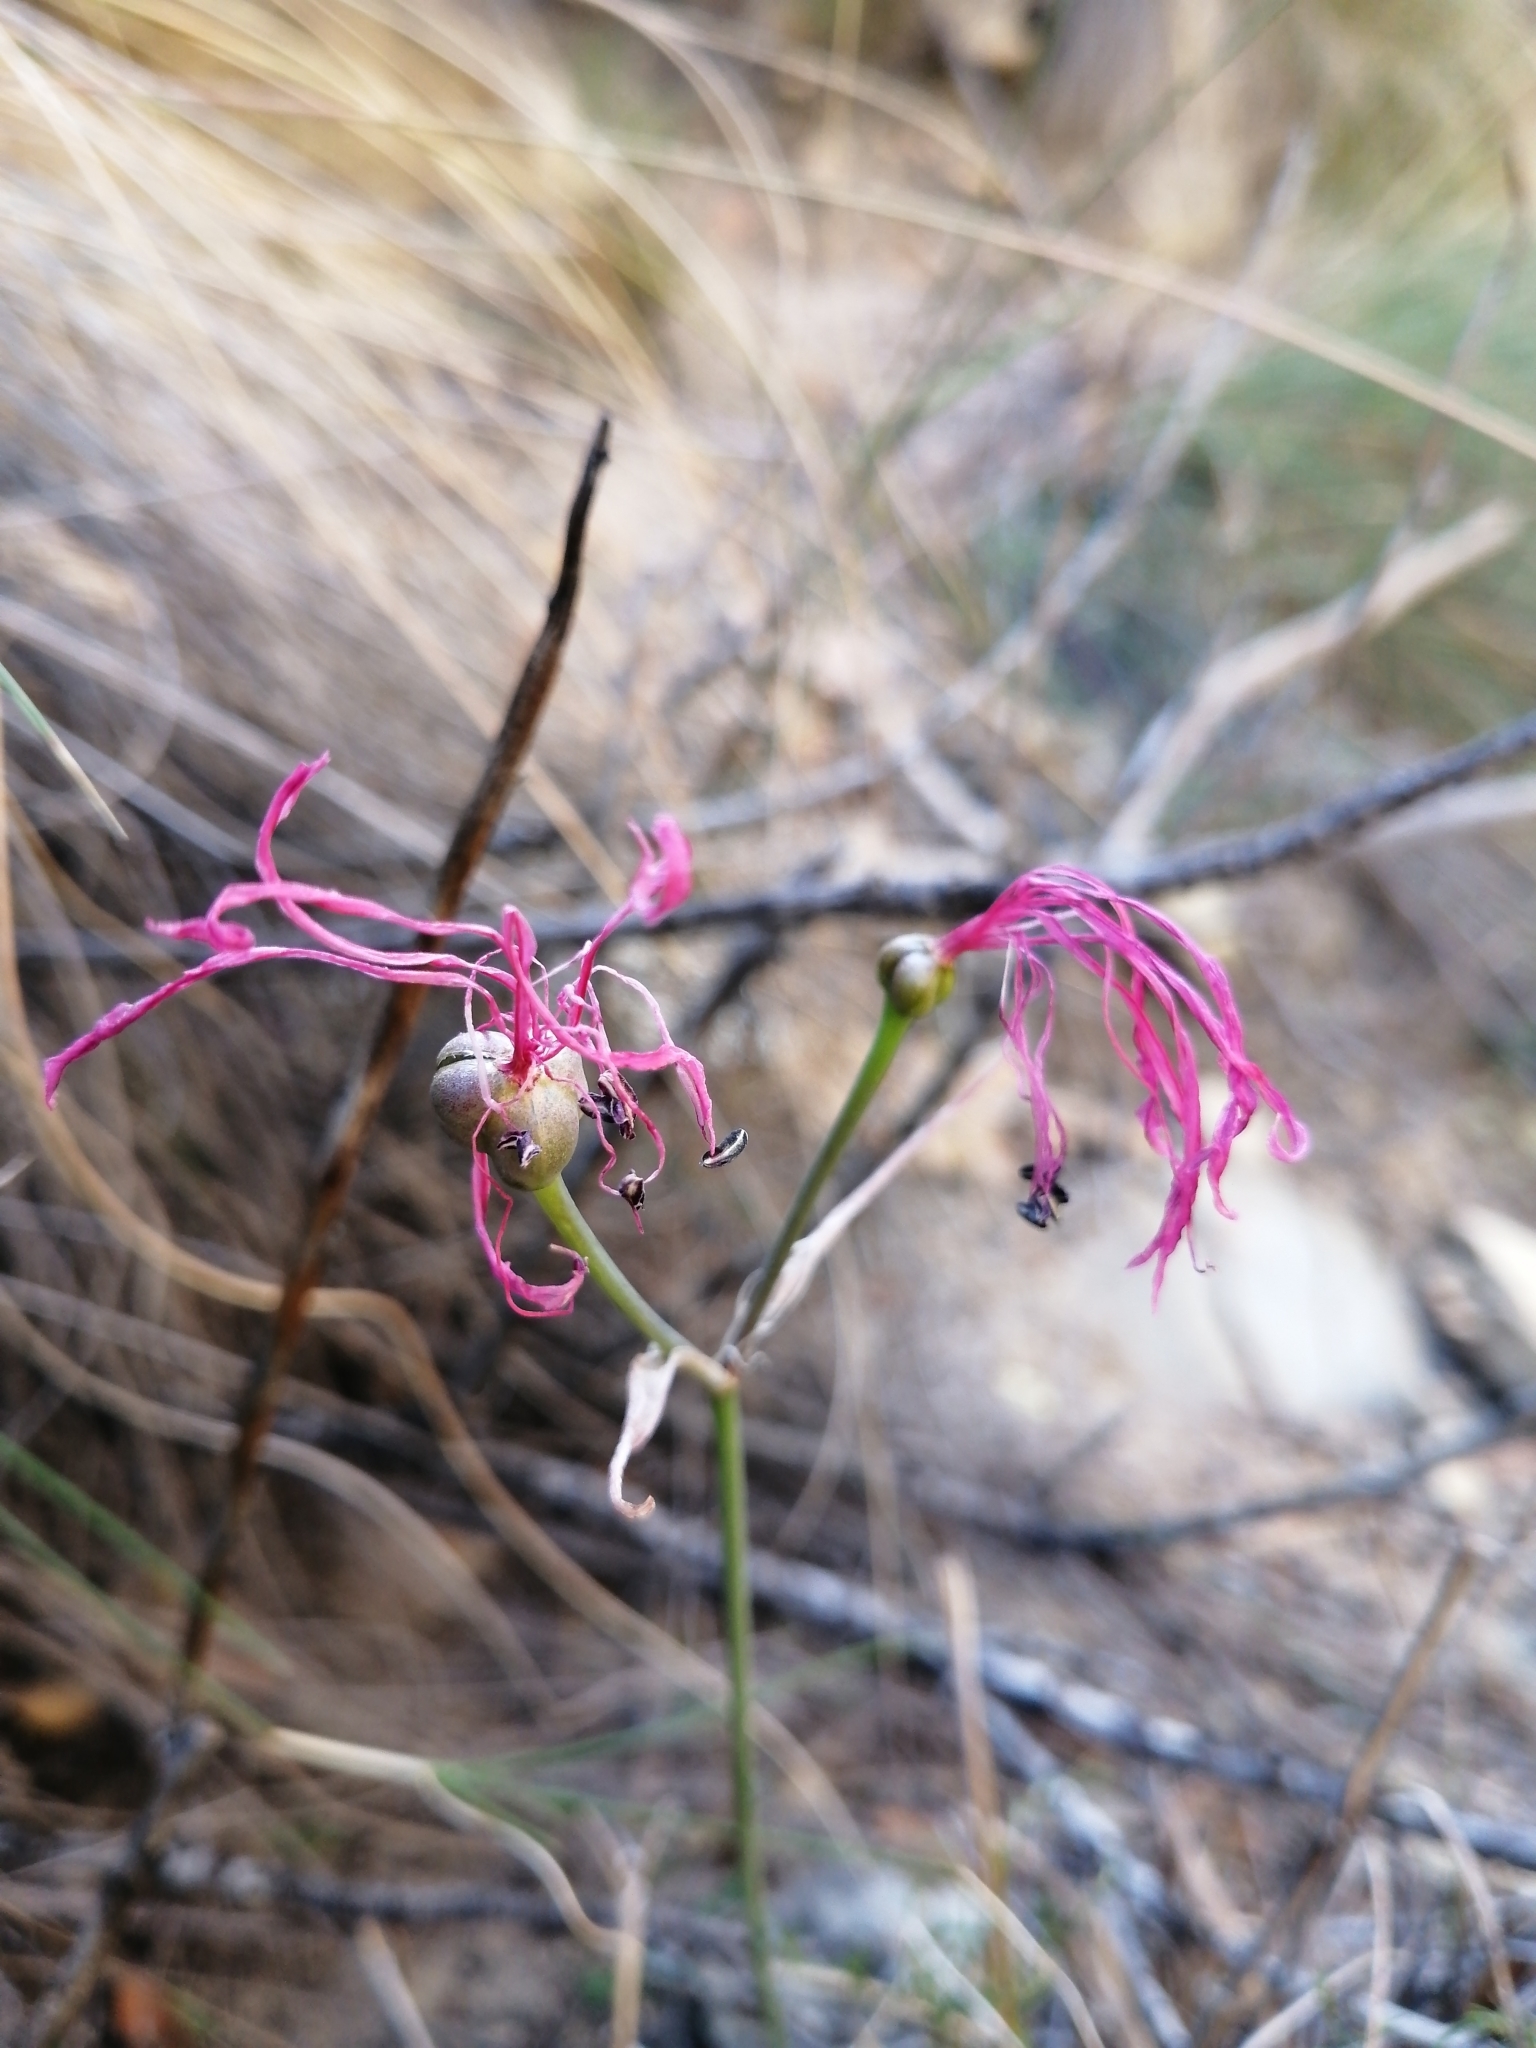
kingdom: Plantae
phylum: Tracheophyta
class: Liliopsida
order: Asparagales
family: Amaryllidaceae
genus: Nerine
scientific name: Nerine humilis
